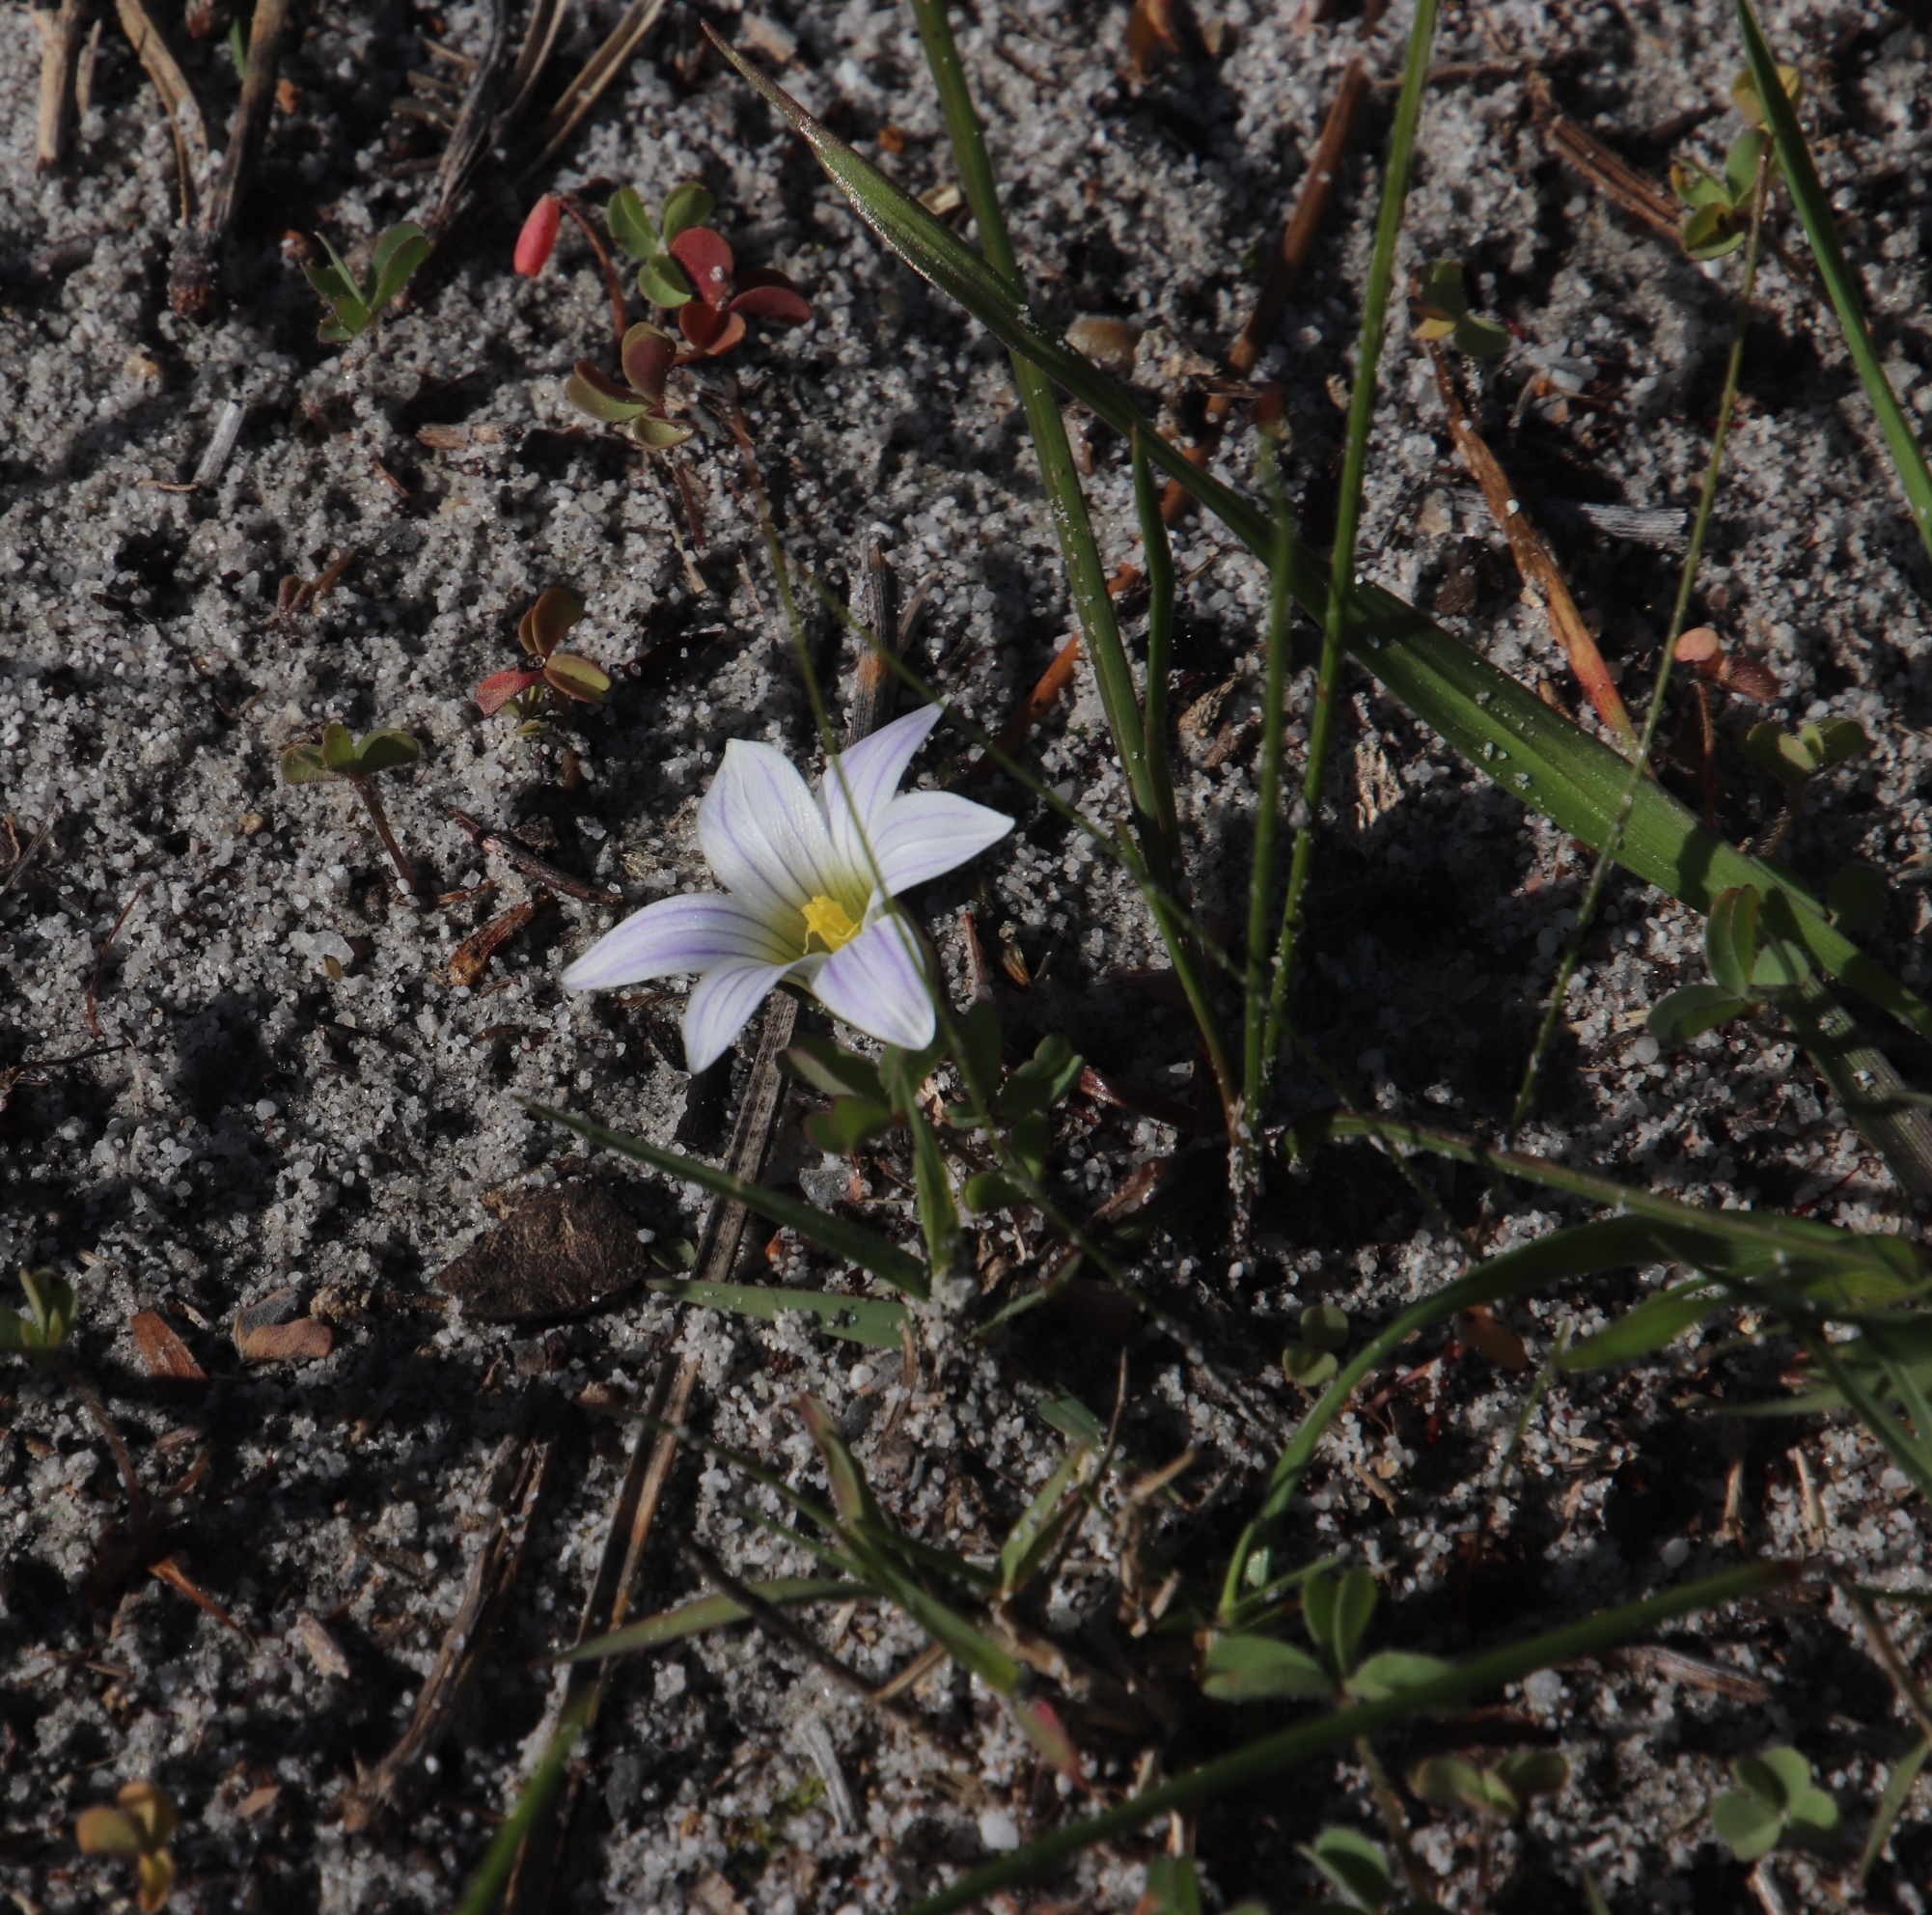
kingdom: Plantae
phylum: Tracheophyta
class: Liliopsida
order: Asparagales
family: Iridaceae
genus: Romulea
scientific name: Romulea flava
